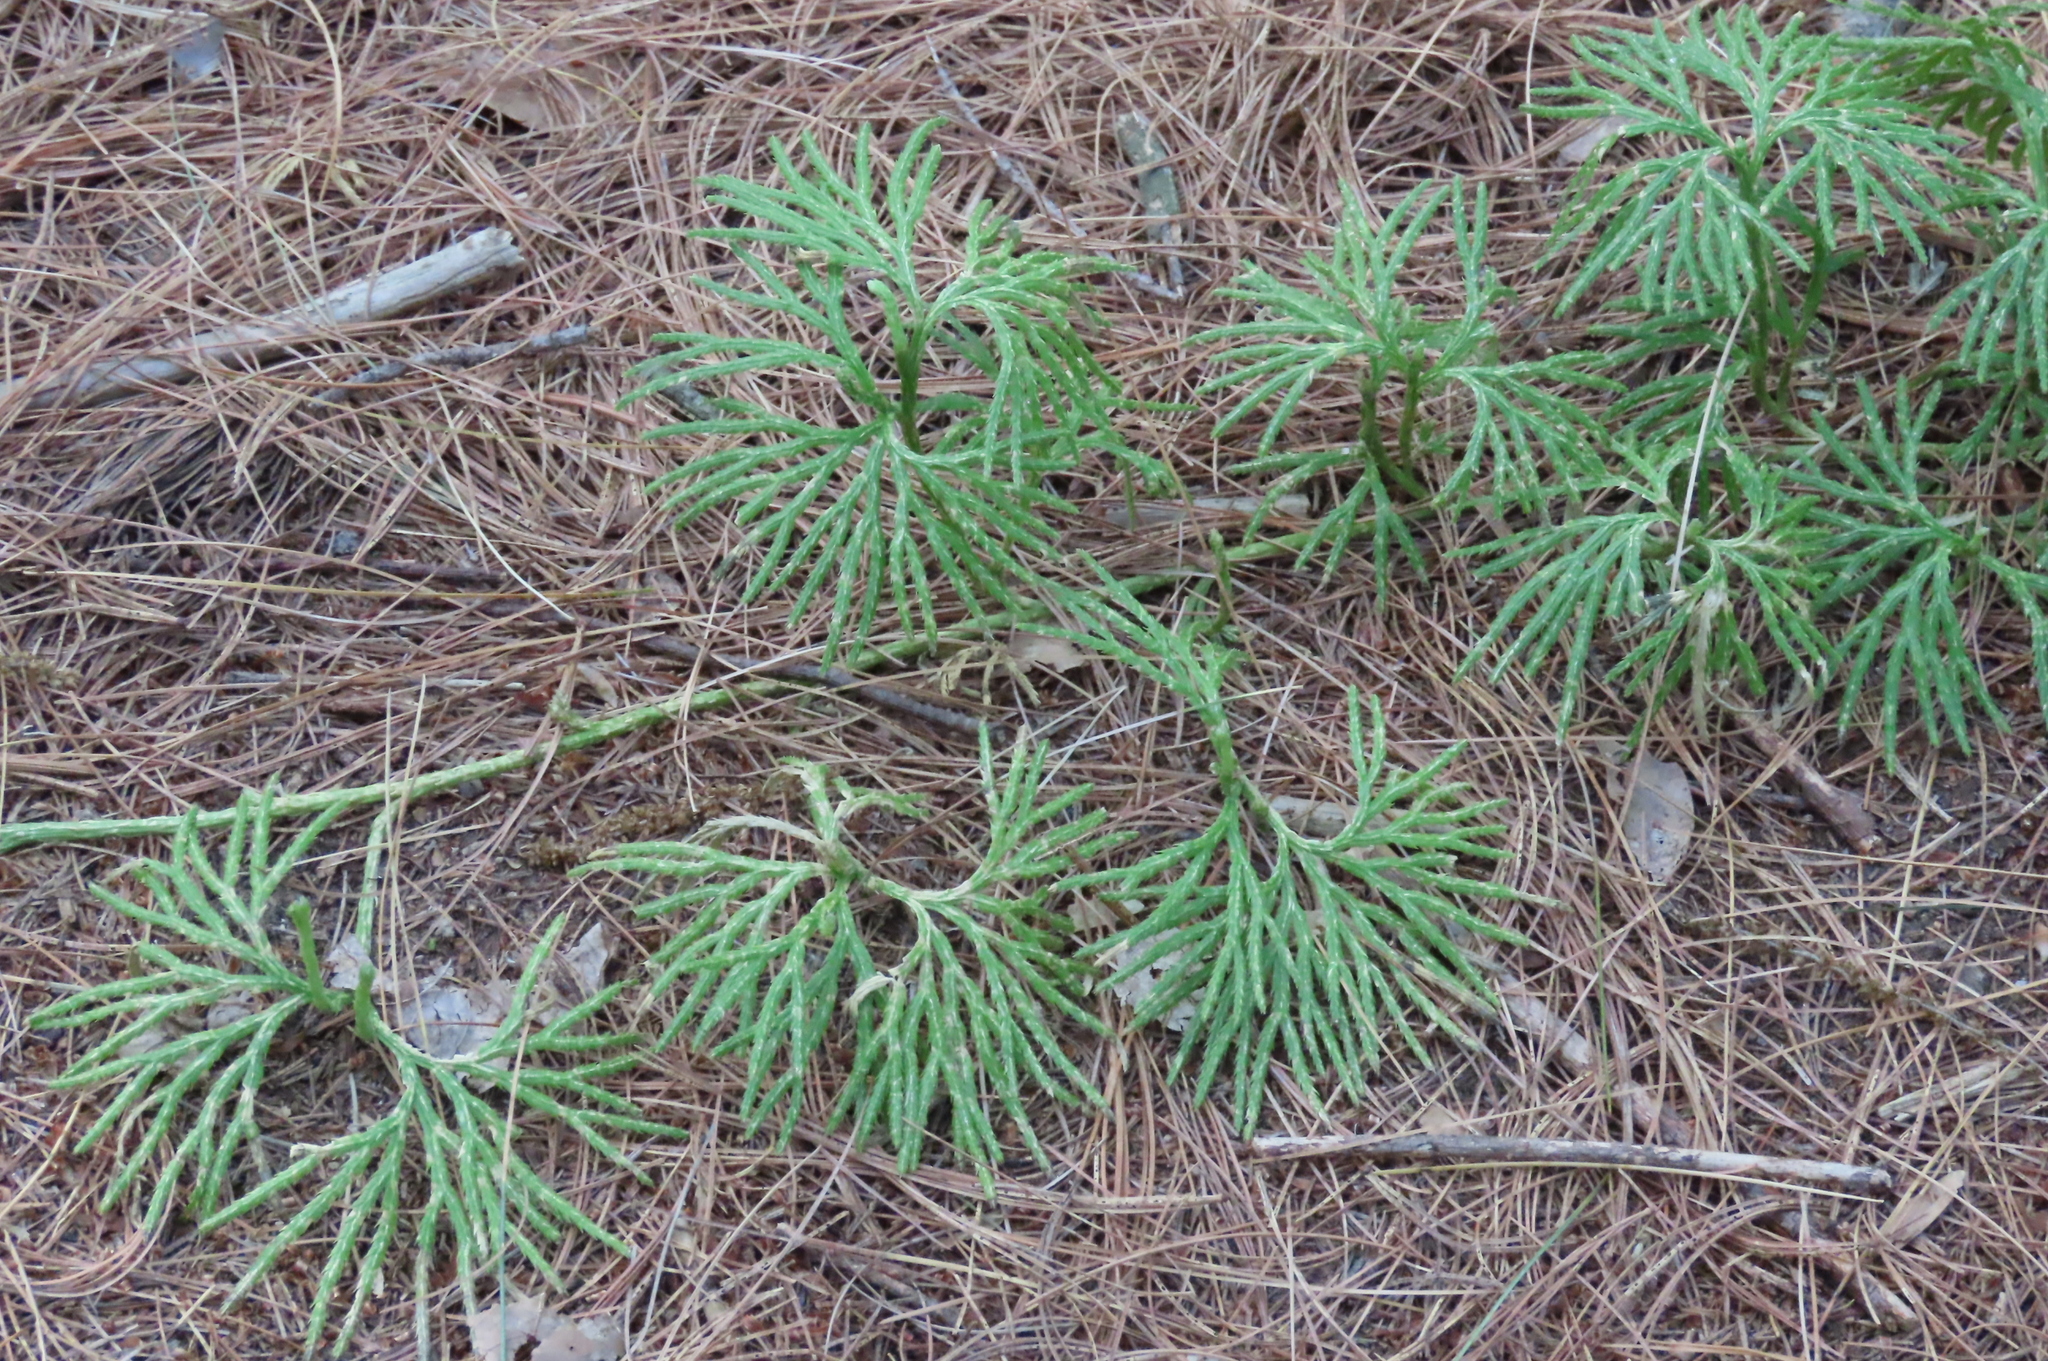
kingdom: Plantae
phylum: Tracheophyta
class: Lycopodiopsida
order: Lycopodiales
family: Lycopodiaceae
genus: Diphasiastrum
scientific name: Diphasiastrum digitatum
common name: Southern running-pine
